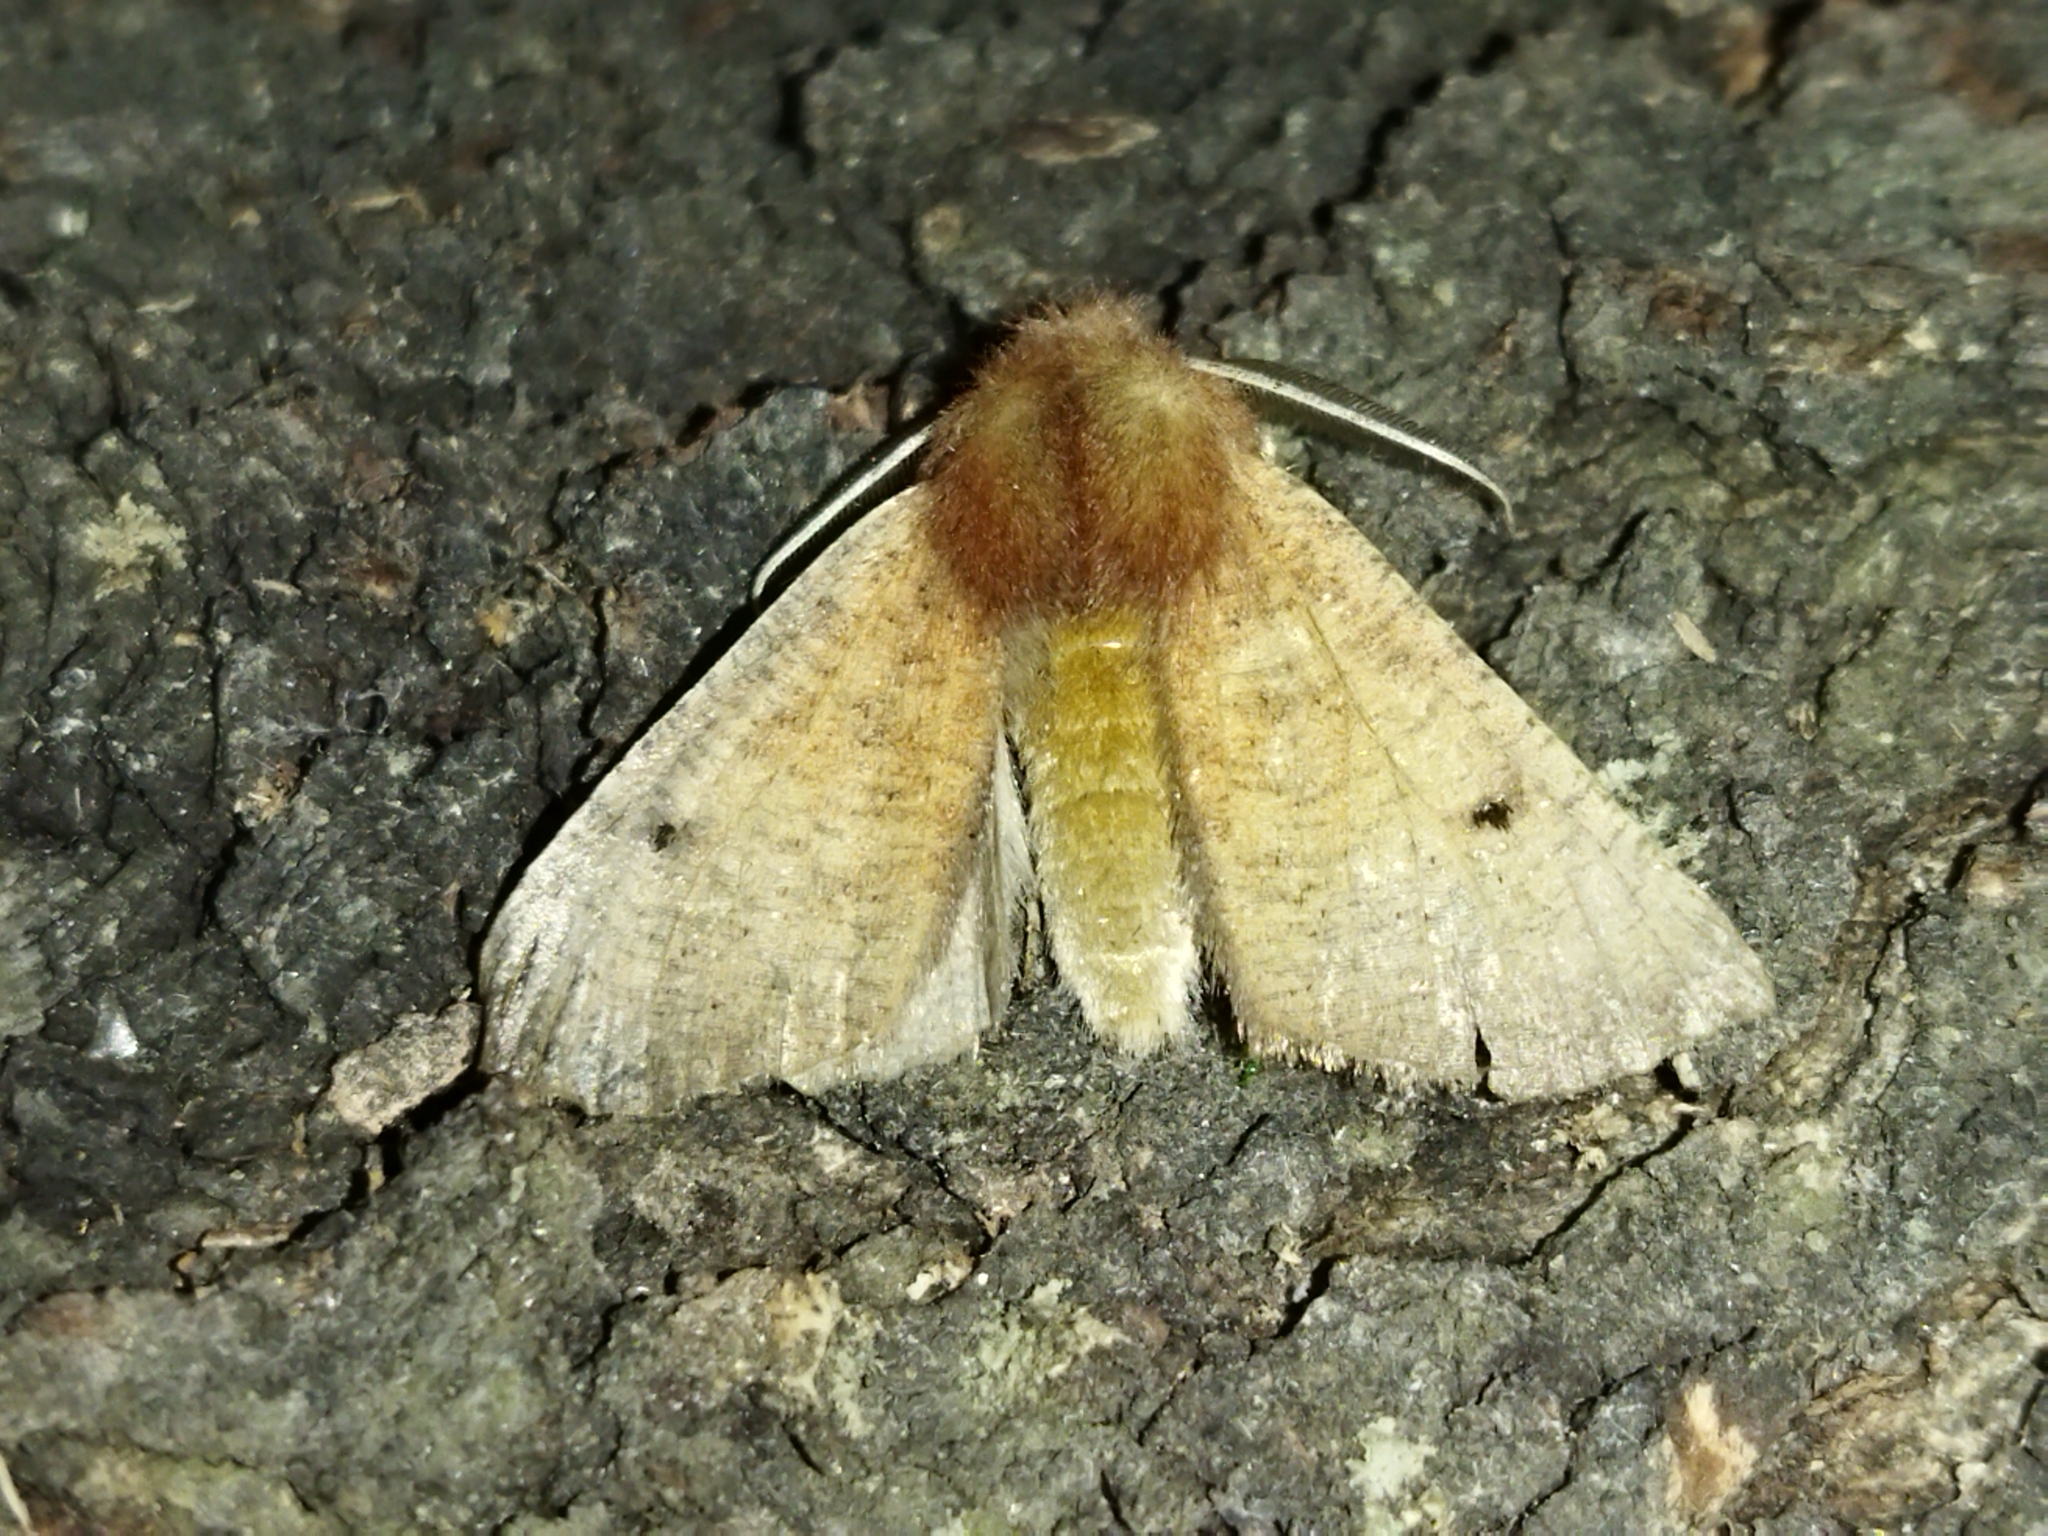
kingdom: Animalia
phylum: Arthropoda
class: Insecta
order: Lepidoptera
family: Geometridae
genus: Dasycorsa
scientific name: Dasycorsa modesta
